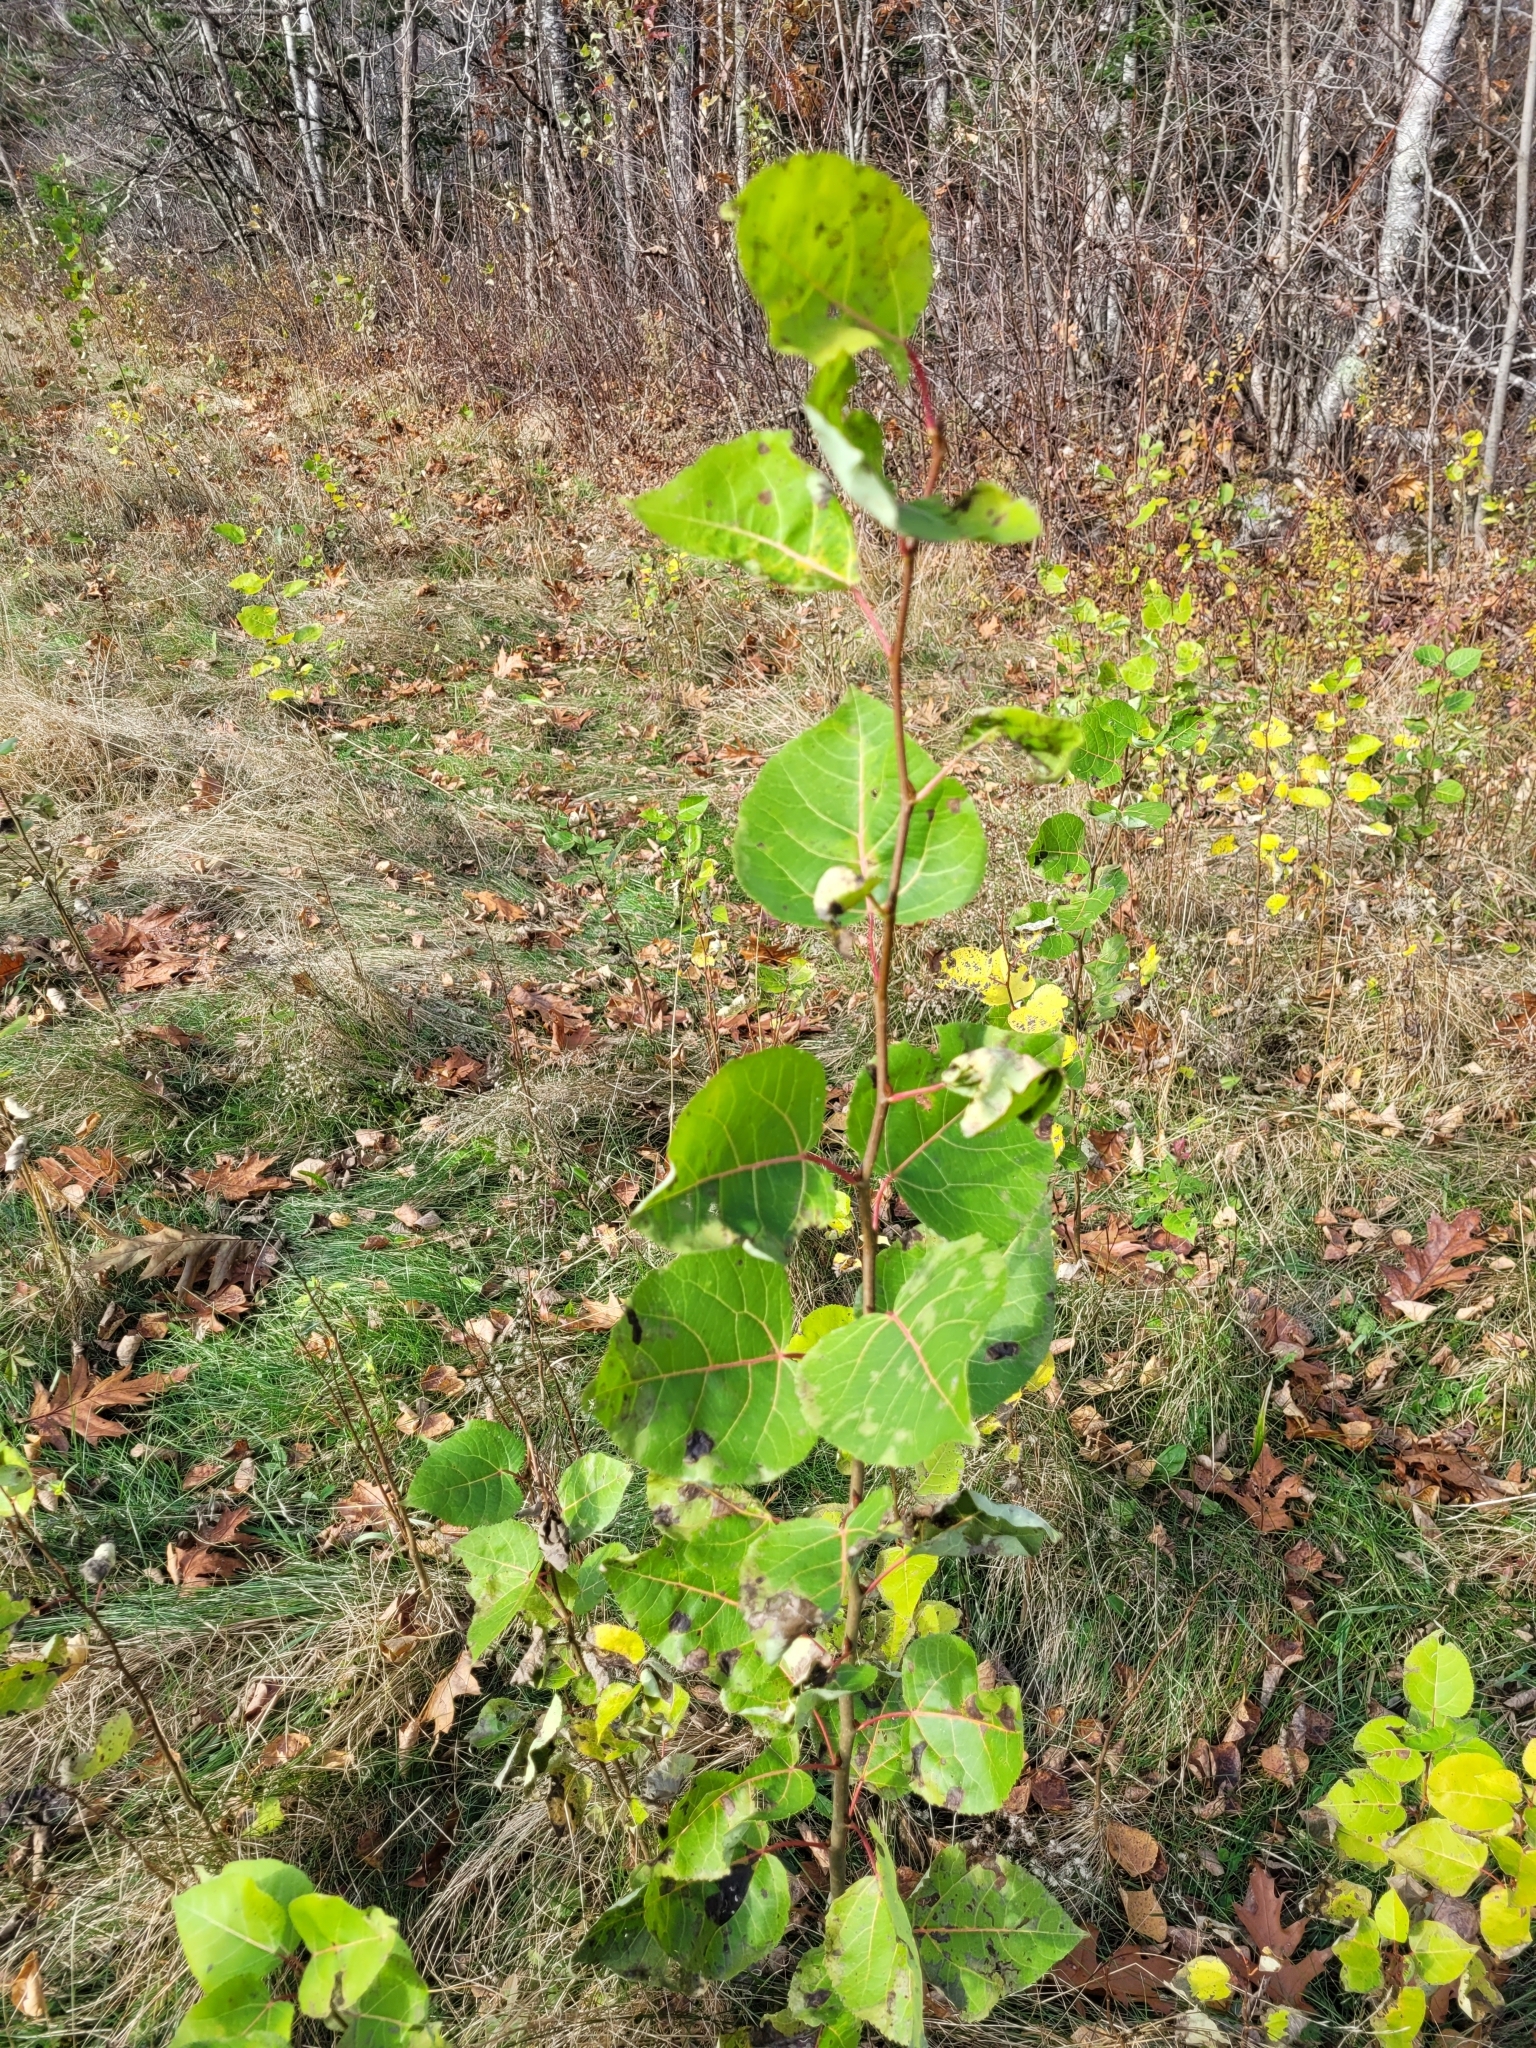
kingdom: Plantae
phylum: Tracheophyta
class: Magnoliopsida
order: Malpighiales
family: Salicaceae
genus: Populus
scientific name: Populus tremuloides
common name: Quaking aspen
